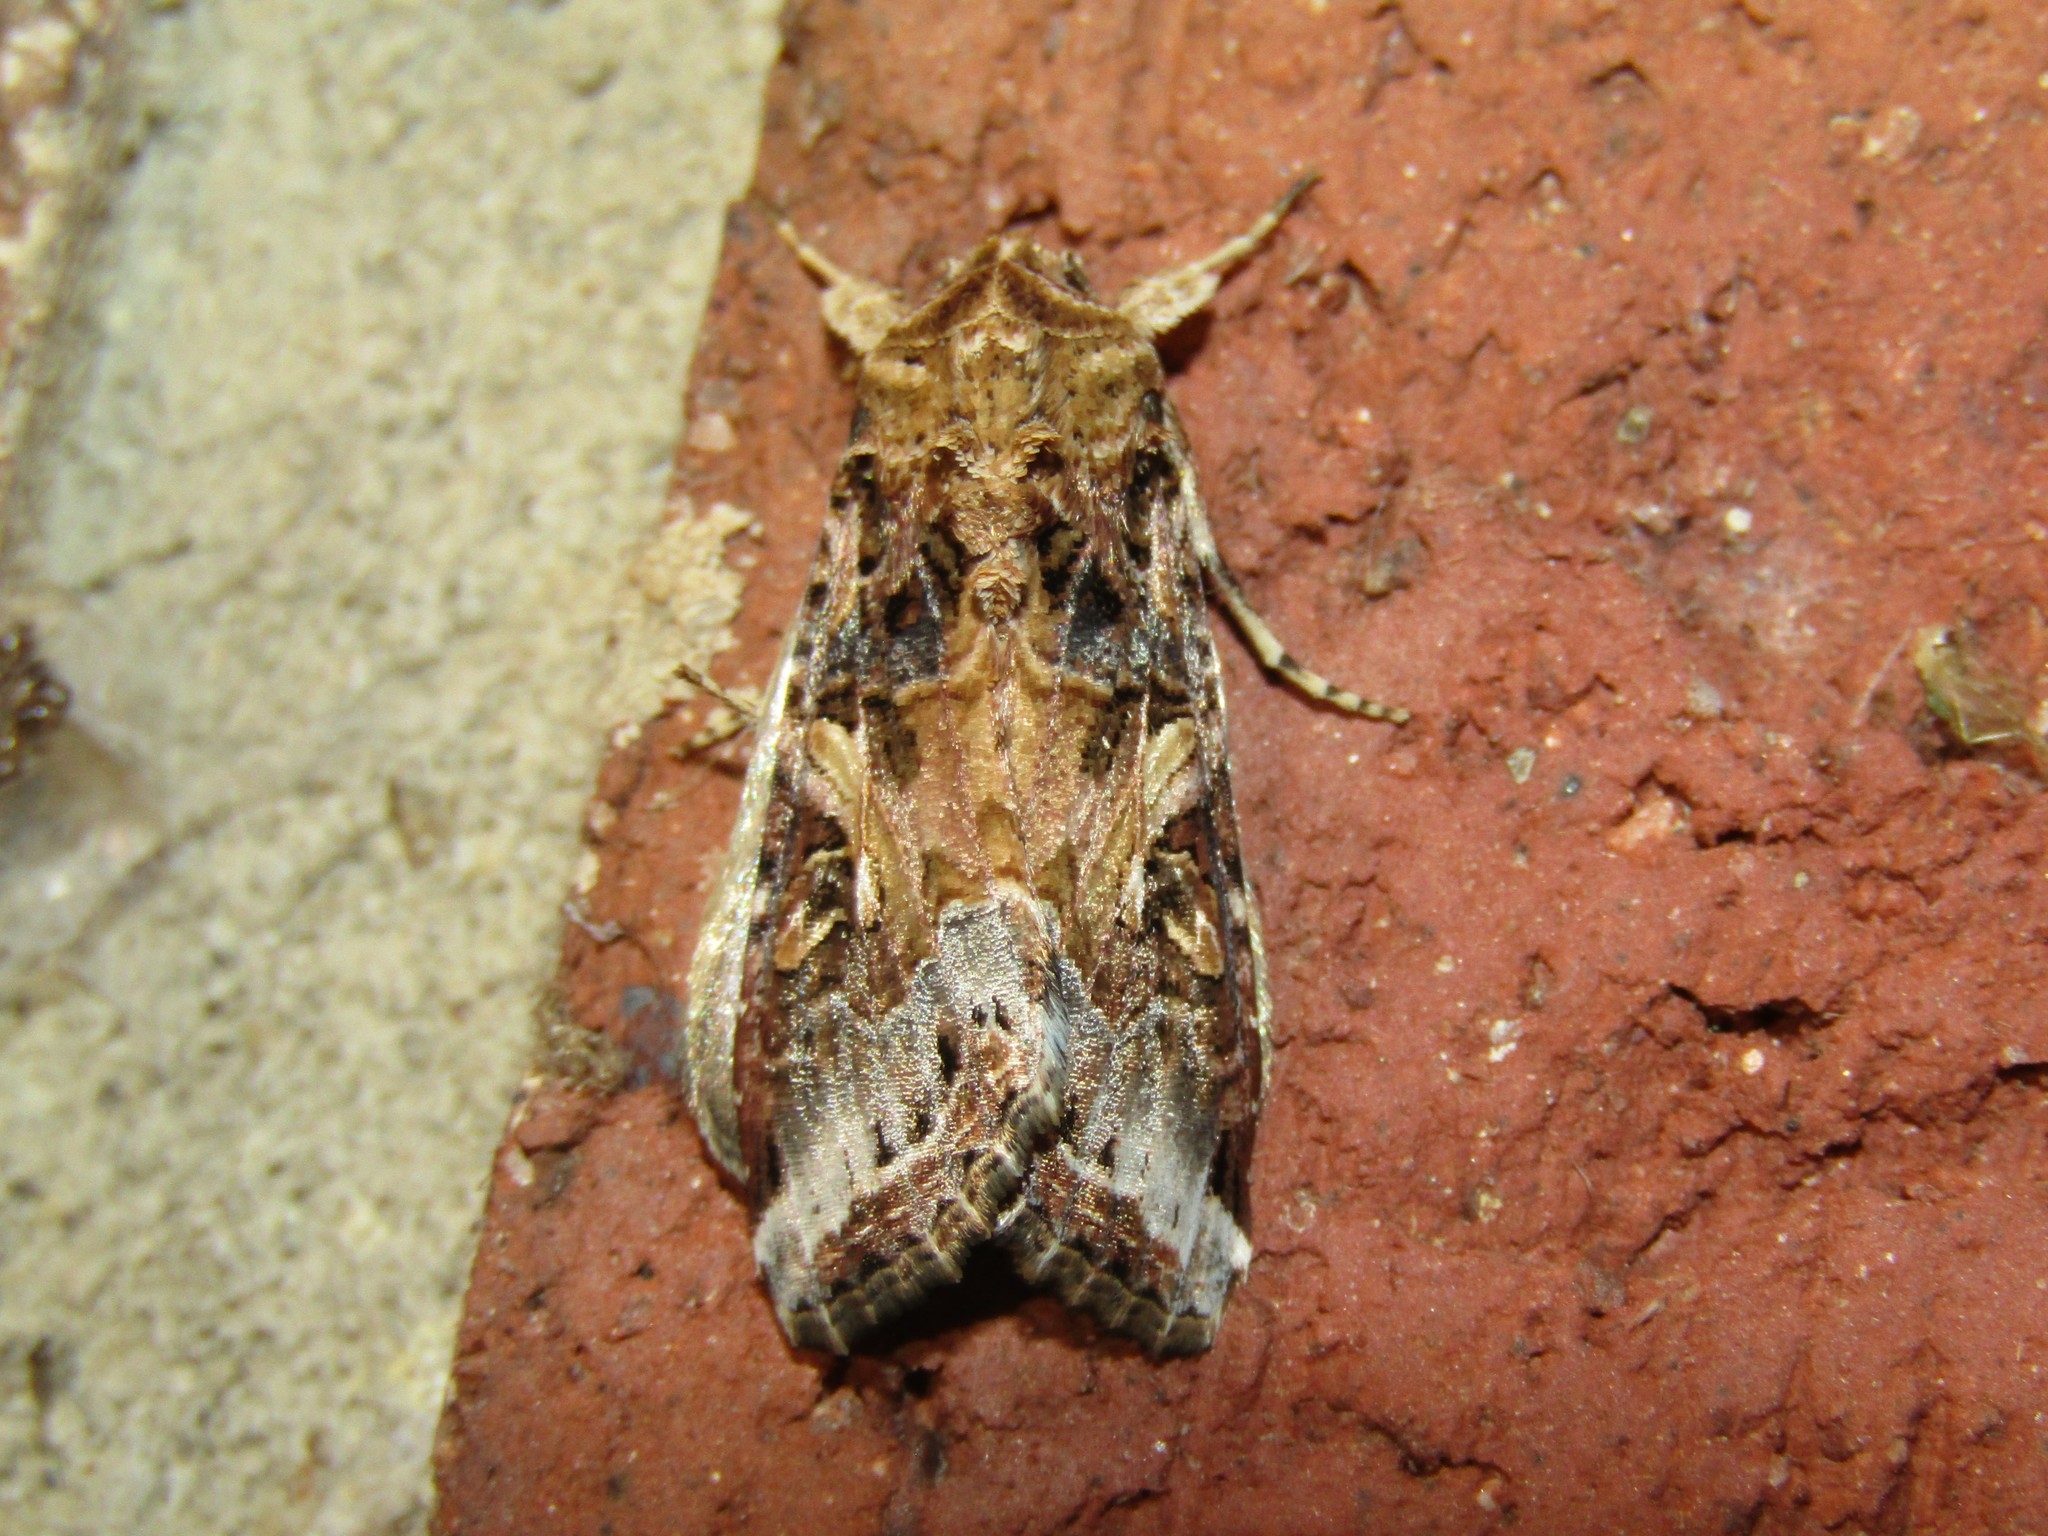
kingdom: Animalia
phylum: Arthropoda
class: Insecta
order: Lepidoptera
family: Noctuidae
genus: Spodoptera
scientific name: Spodoptera ornithogalli
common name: Yellow-striped armyworm
